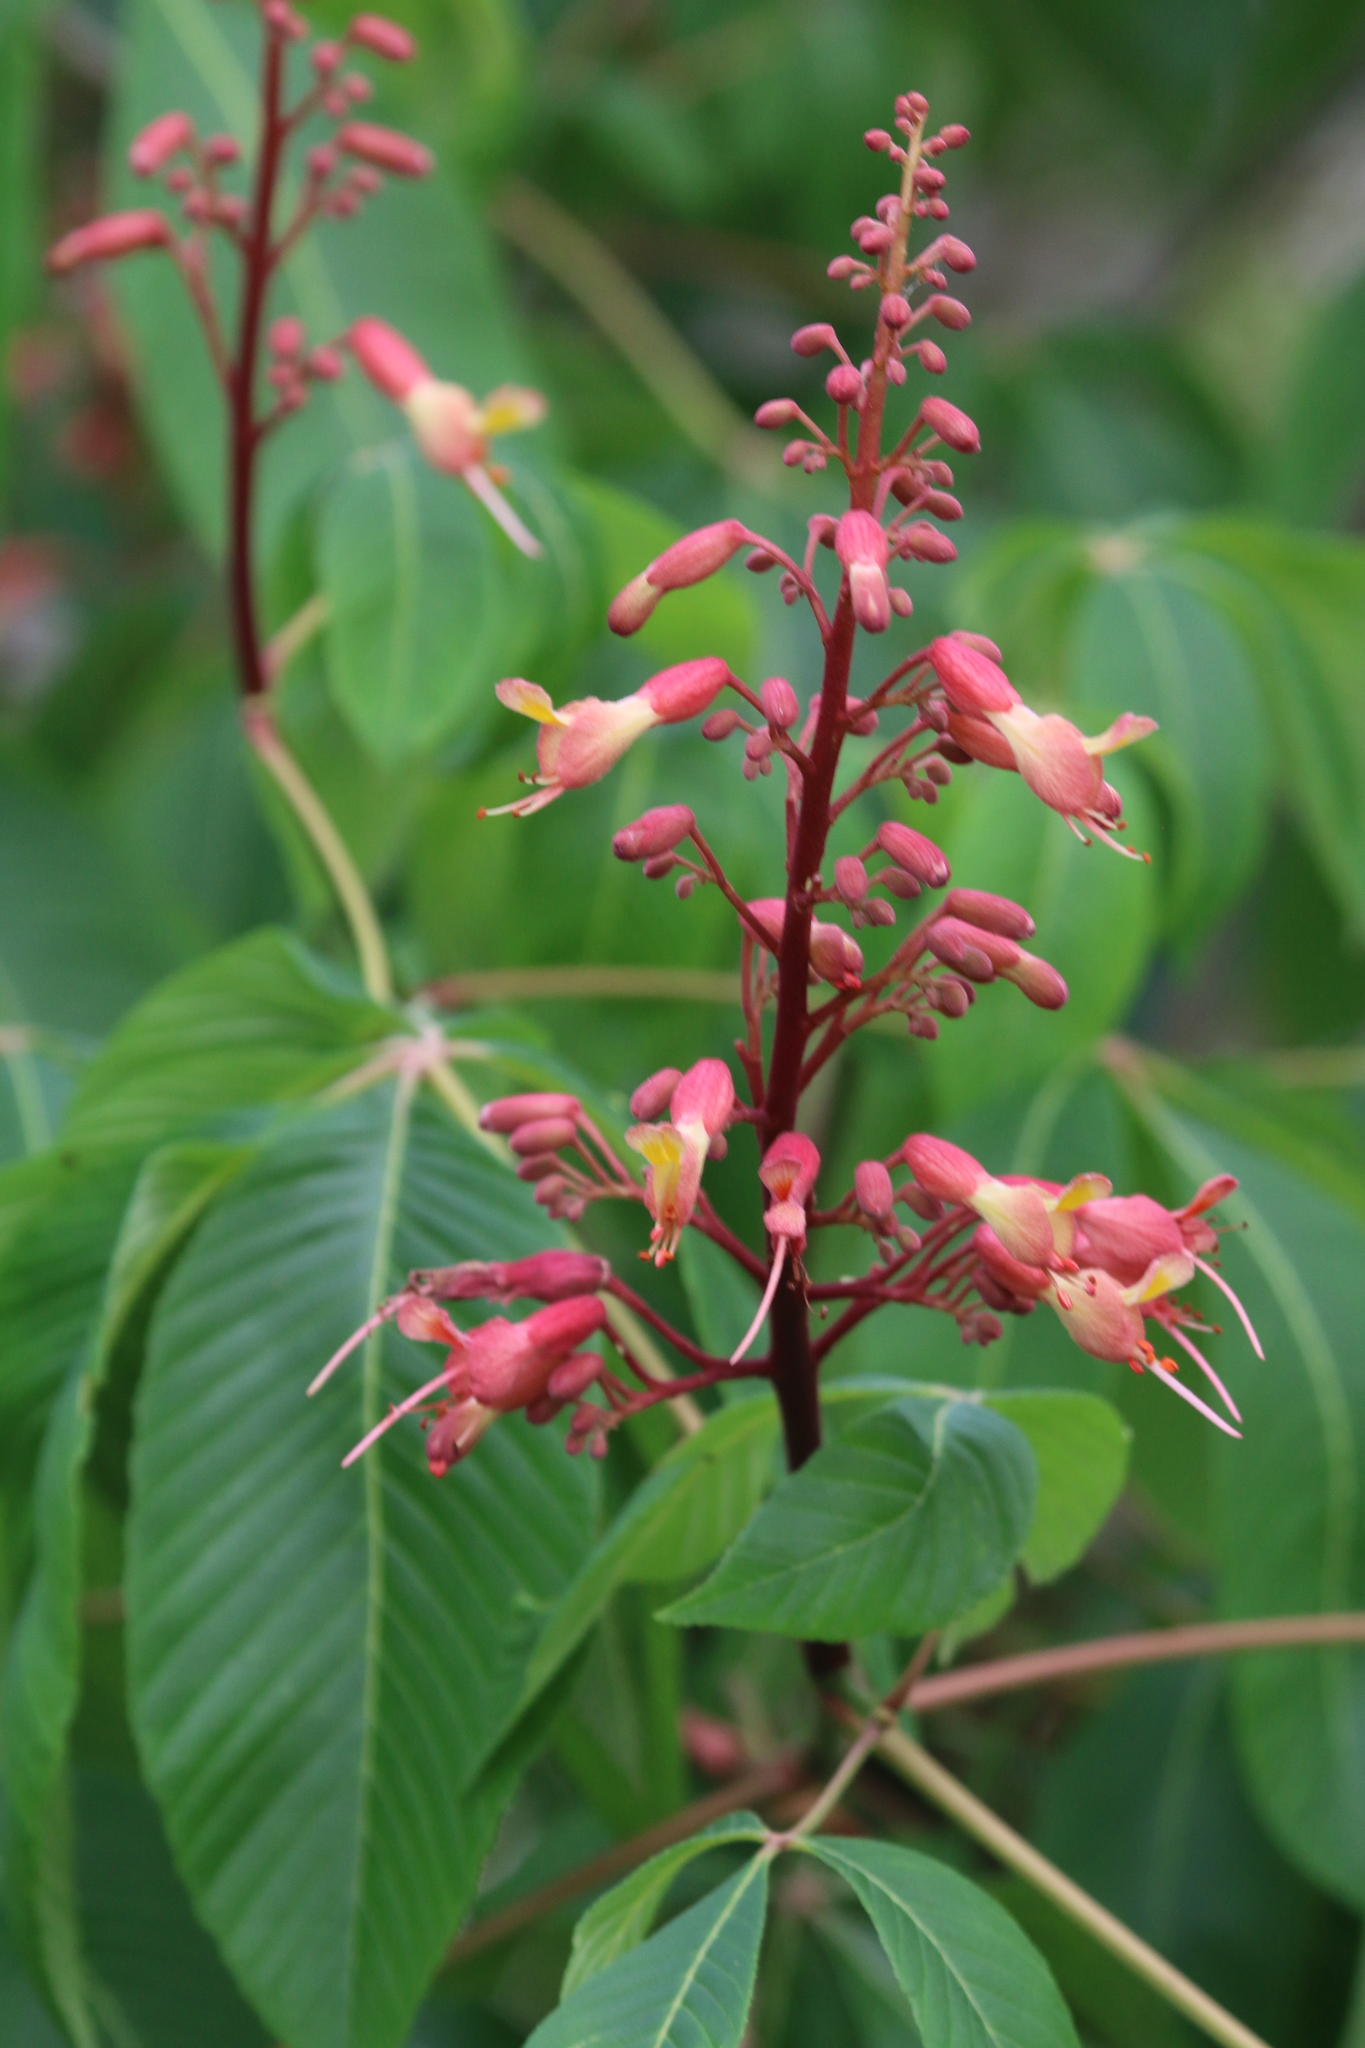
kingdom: Plantae
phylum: Tracheophyta
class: Magnoliopsida
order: Sapindales
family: Sapindaceae
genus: Aesculus
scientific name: Aesculus pavia
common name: Red buckeye
